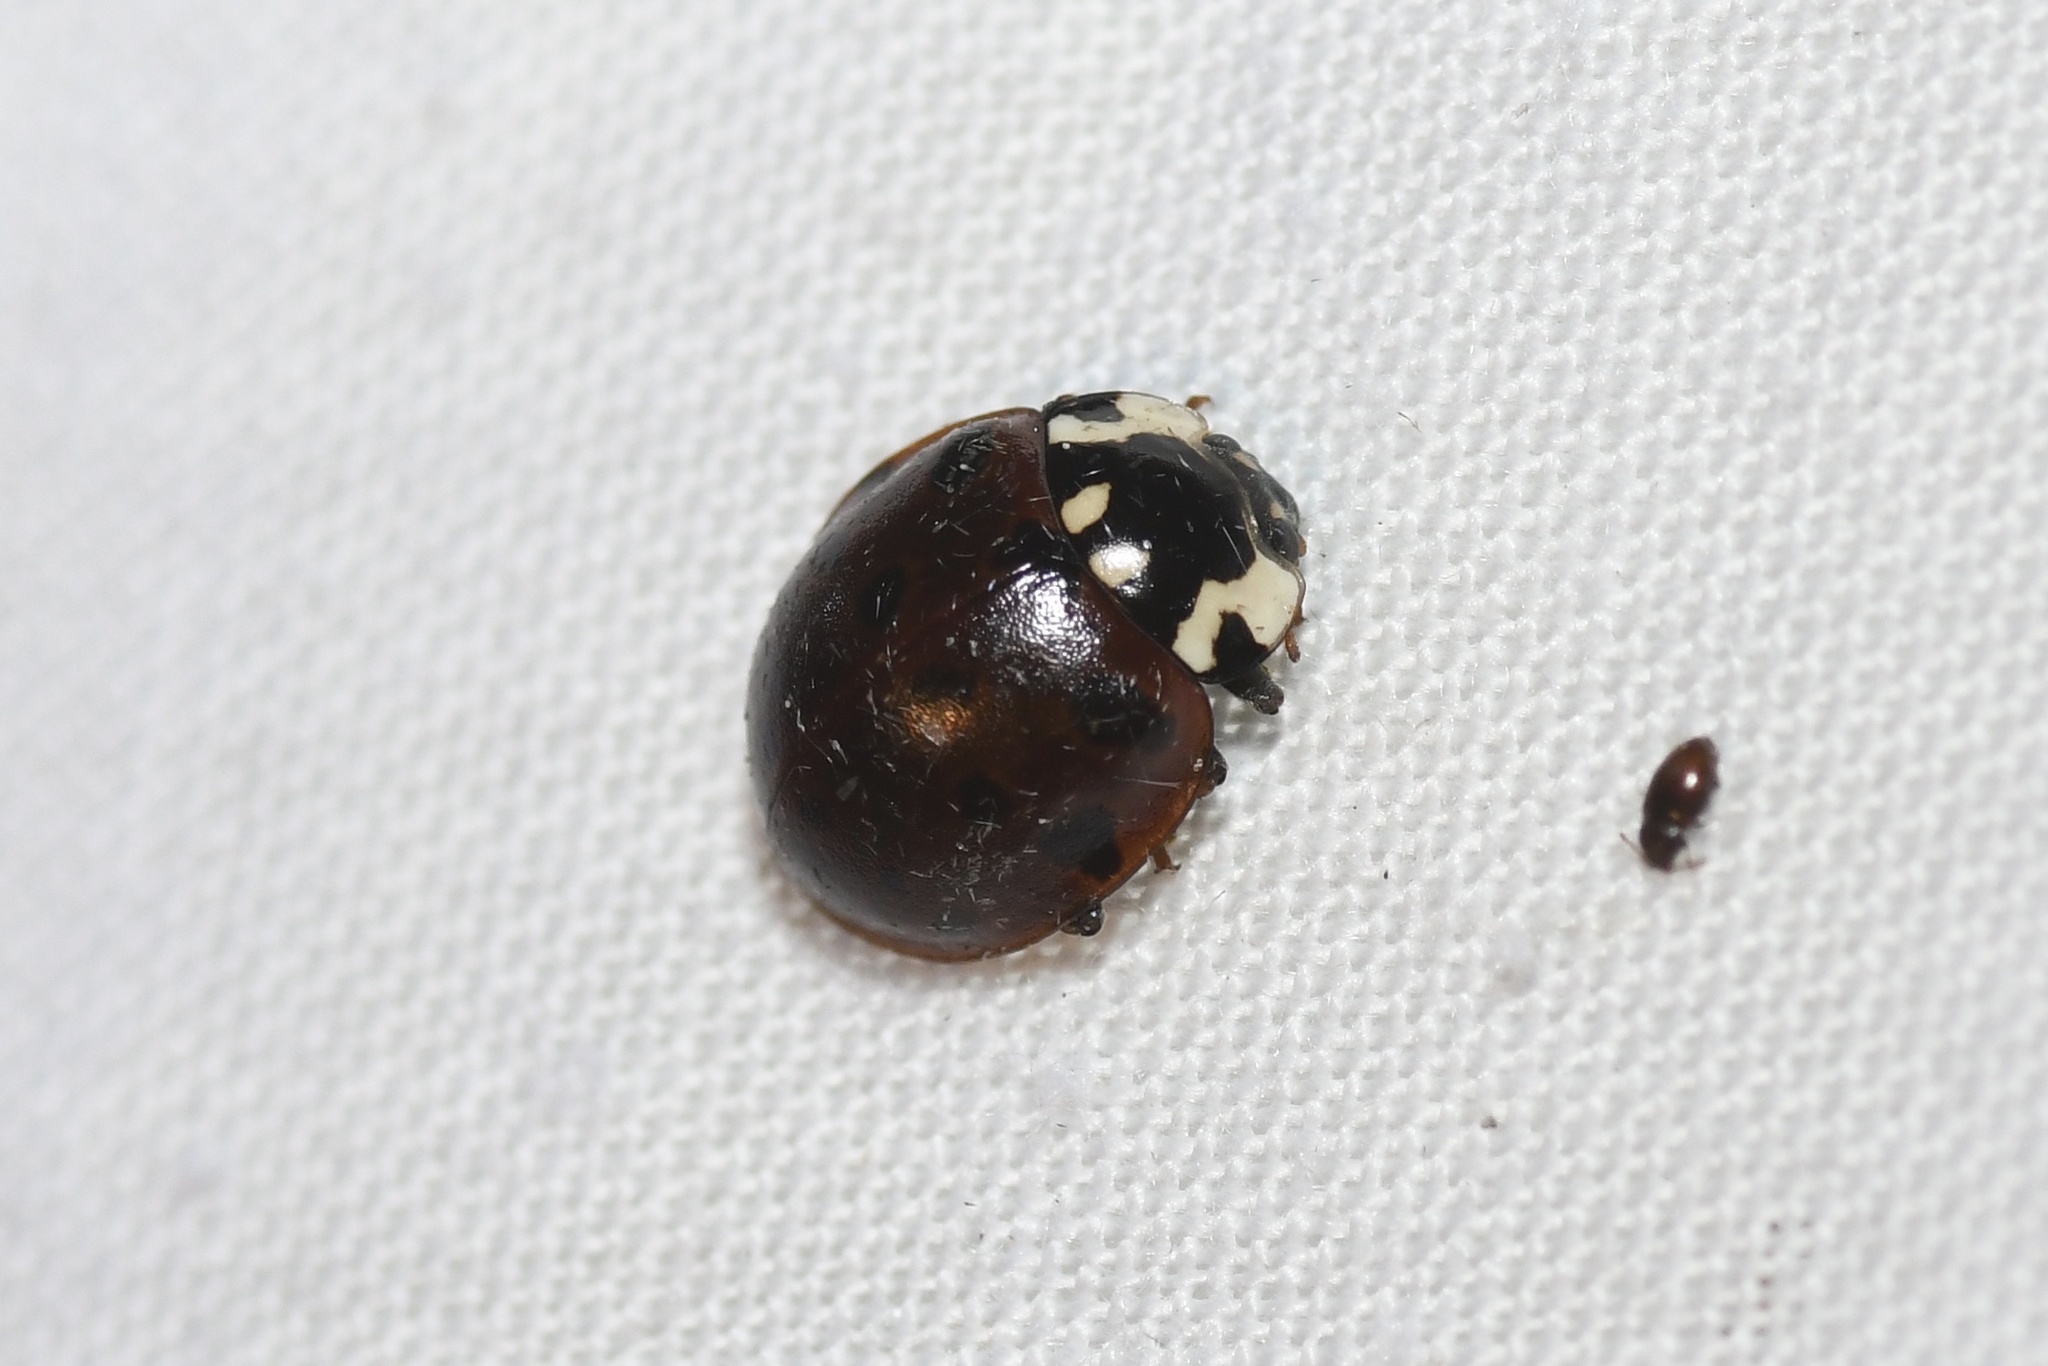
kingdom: Animalia
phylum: Arthropoda
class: Insecta
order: Coleoptera
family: Coccinellidae
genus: Anatis
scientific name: Anatis labiculata
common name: Fifteen-spotted lady beetle
